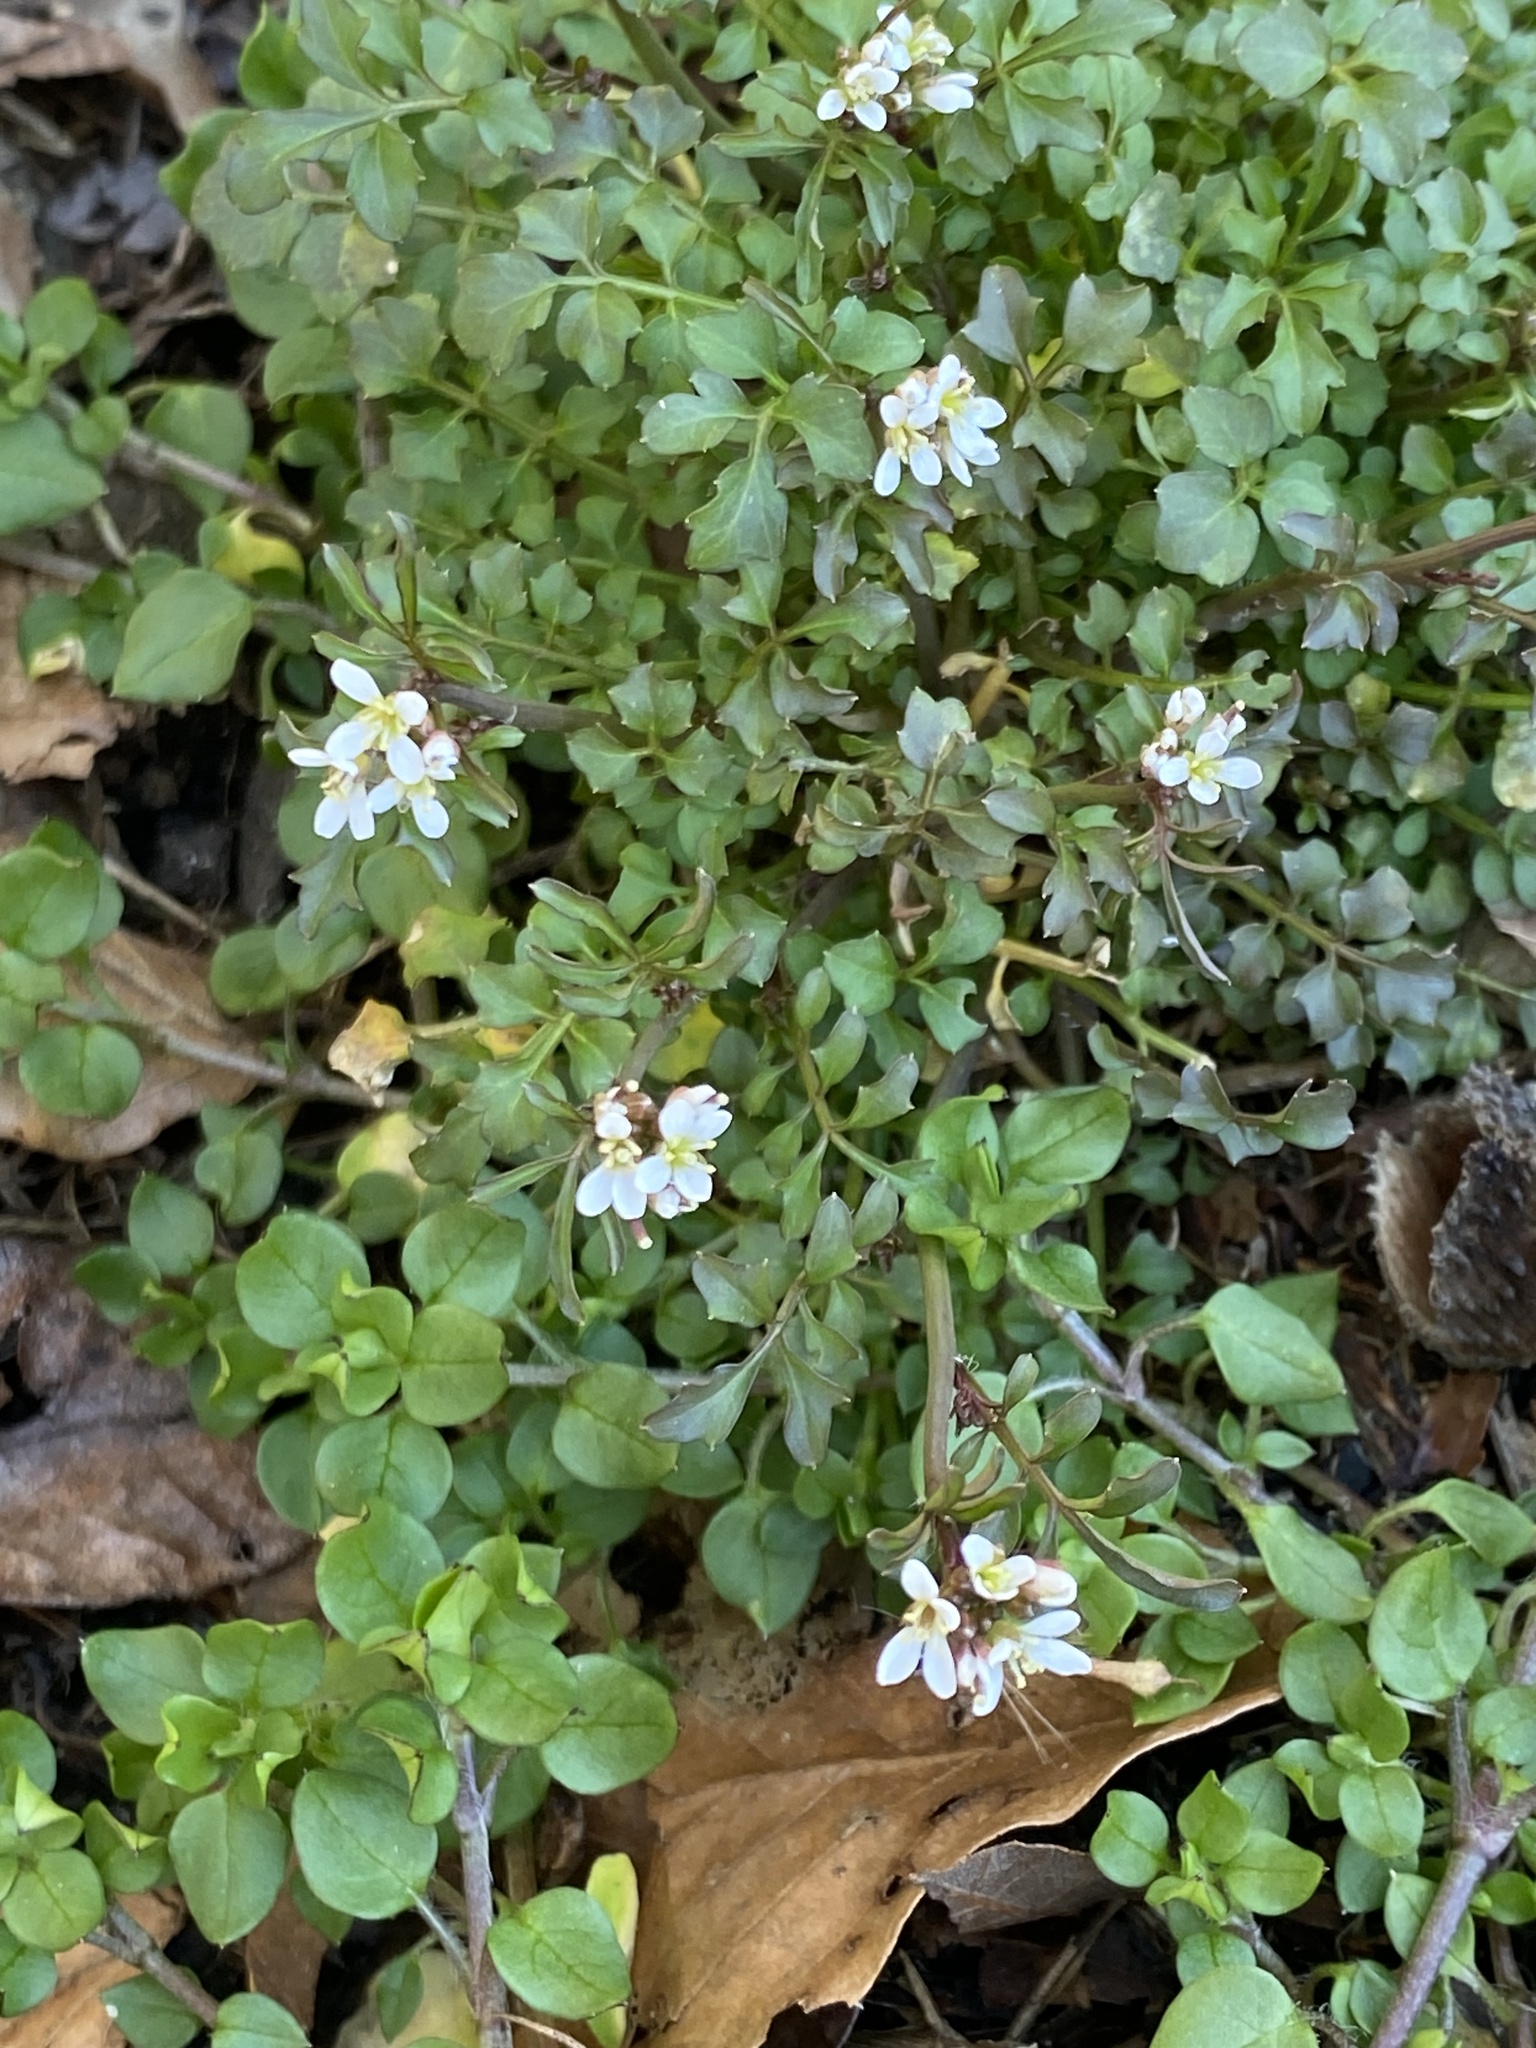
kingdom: Plantae
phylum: Tracheophyta
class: Magnoliopsida
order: Brassicales
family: Brassicaceae
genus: Cardamine
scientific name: Cardamine hirsuta
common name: Hairy bittercress
